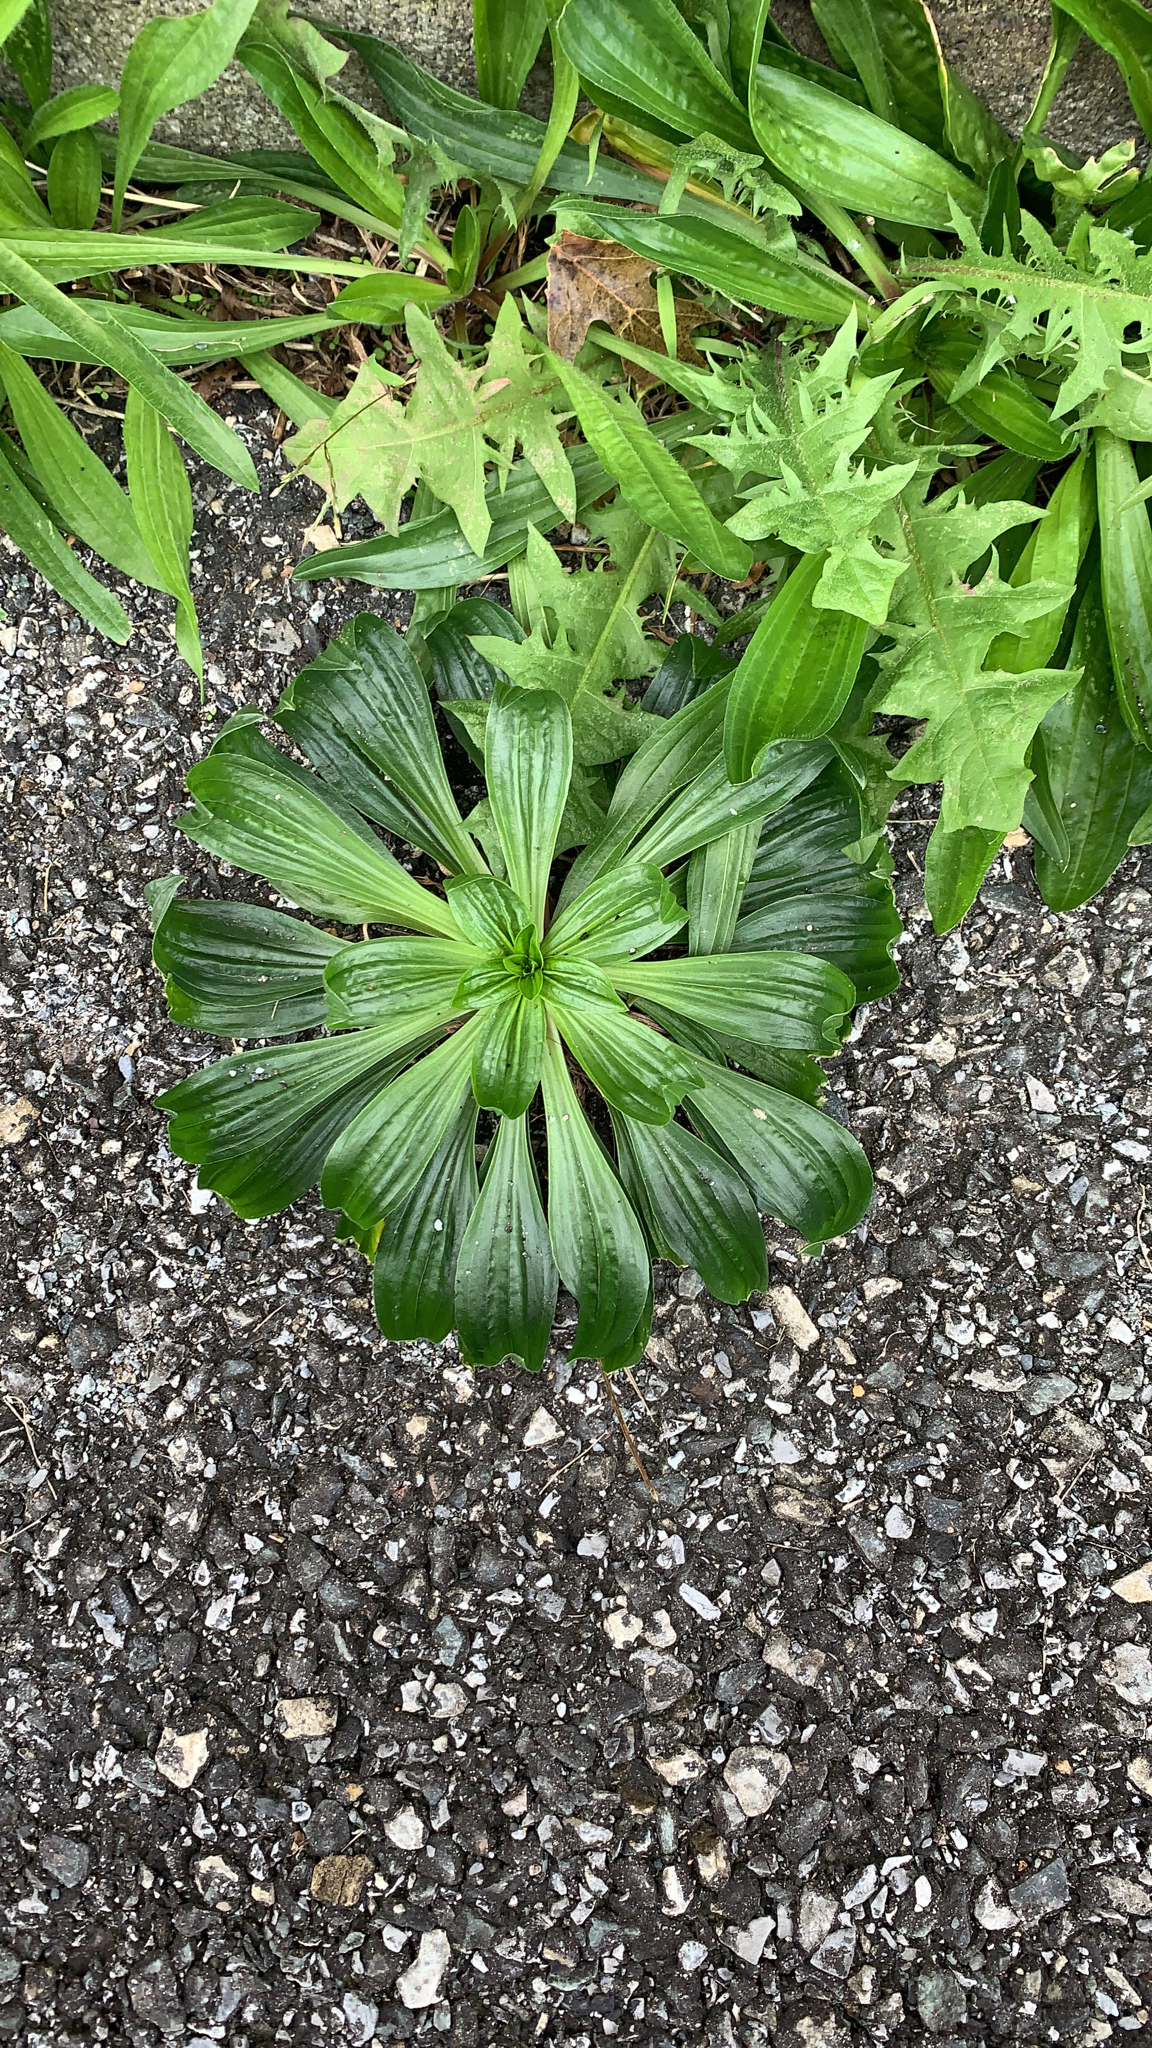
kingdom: Plantae
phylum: Tracheophyta
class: Magnoliopsida
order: Lamiales
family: Plantaginaceae
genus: Plantago
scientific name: Plantago lanceolata
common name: Ribwort plantain
